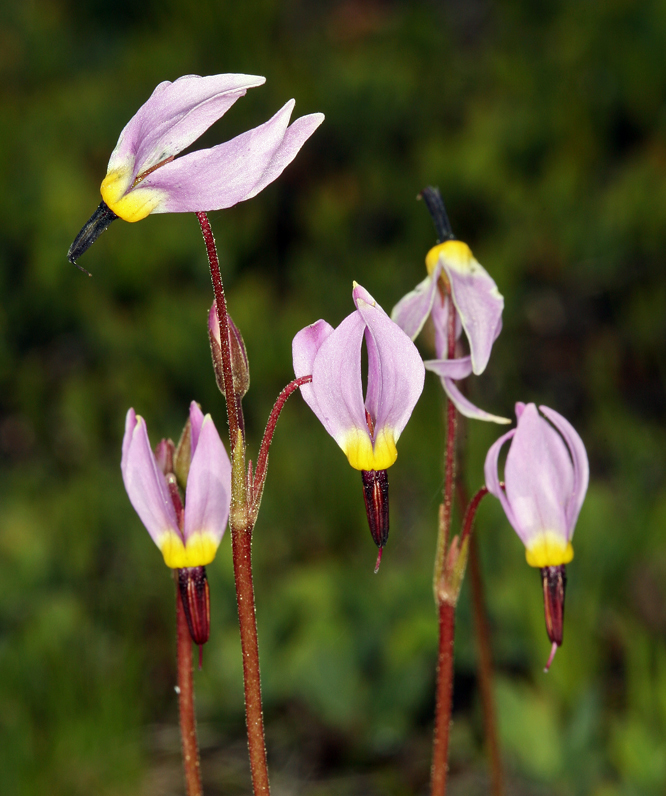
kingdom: Plantae
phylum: Tracheophyta
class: Magnoliopsida
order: Ericales
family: Primulaceae
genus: Dodecatheon
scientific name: Dodecatheon alpinum
